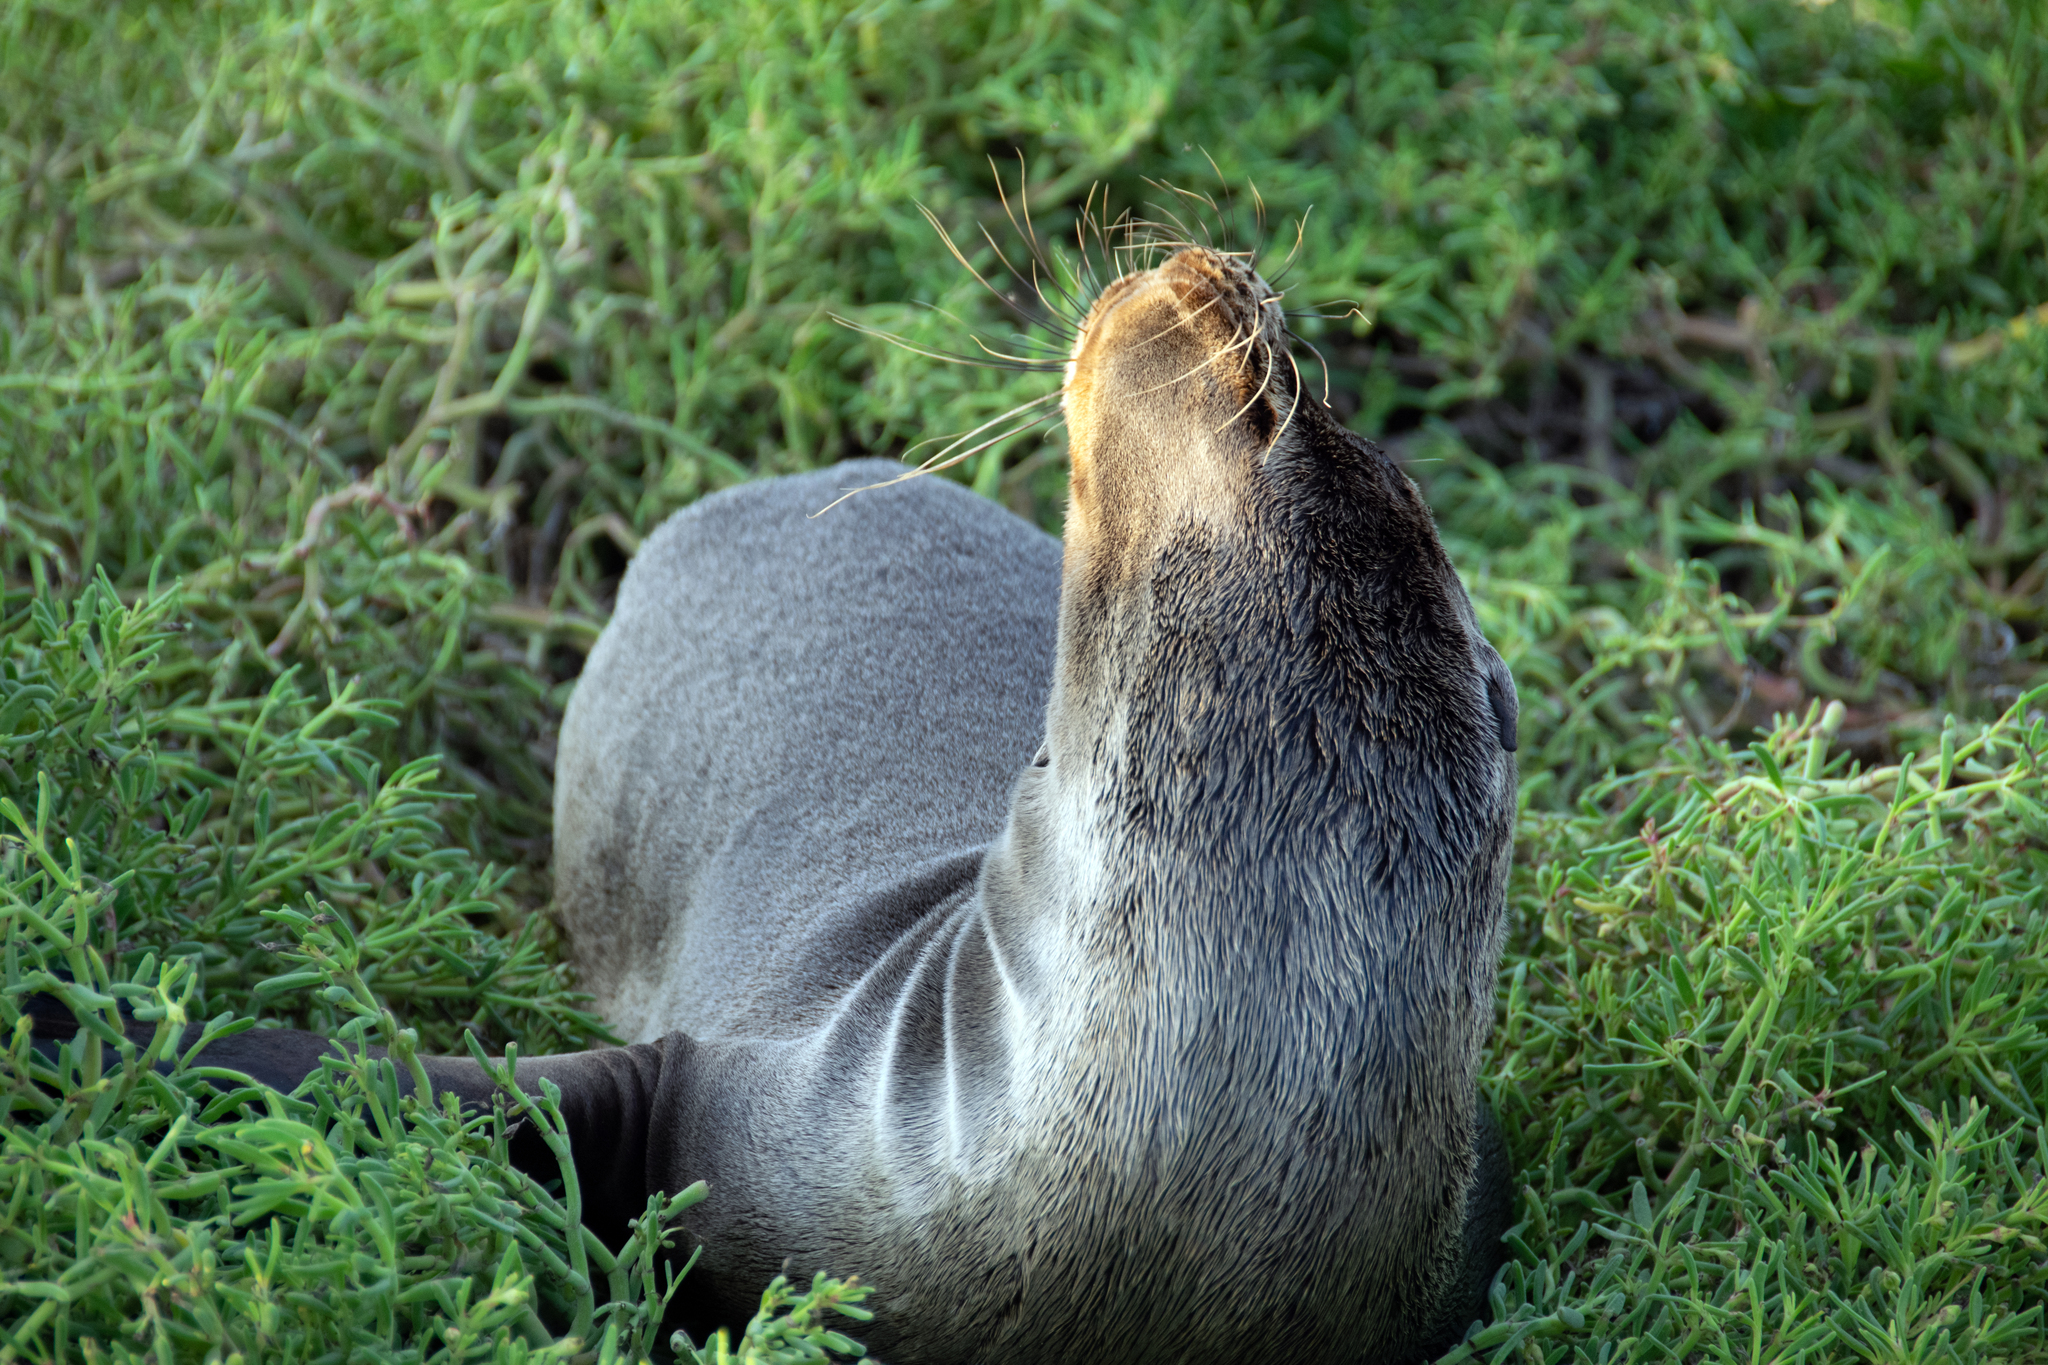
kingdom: Animalia
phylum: Chordata
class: Mammalia
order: Carnivora
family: Otariidae
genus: Zalophus
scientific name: Zalophus wollebaeki
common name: Galapagos sea lion
